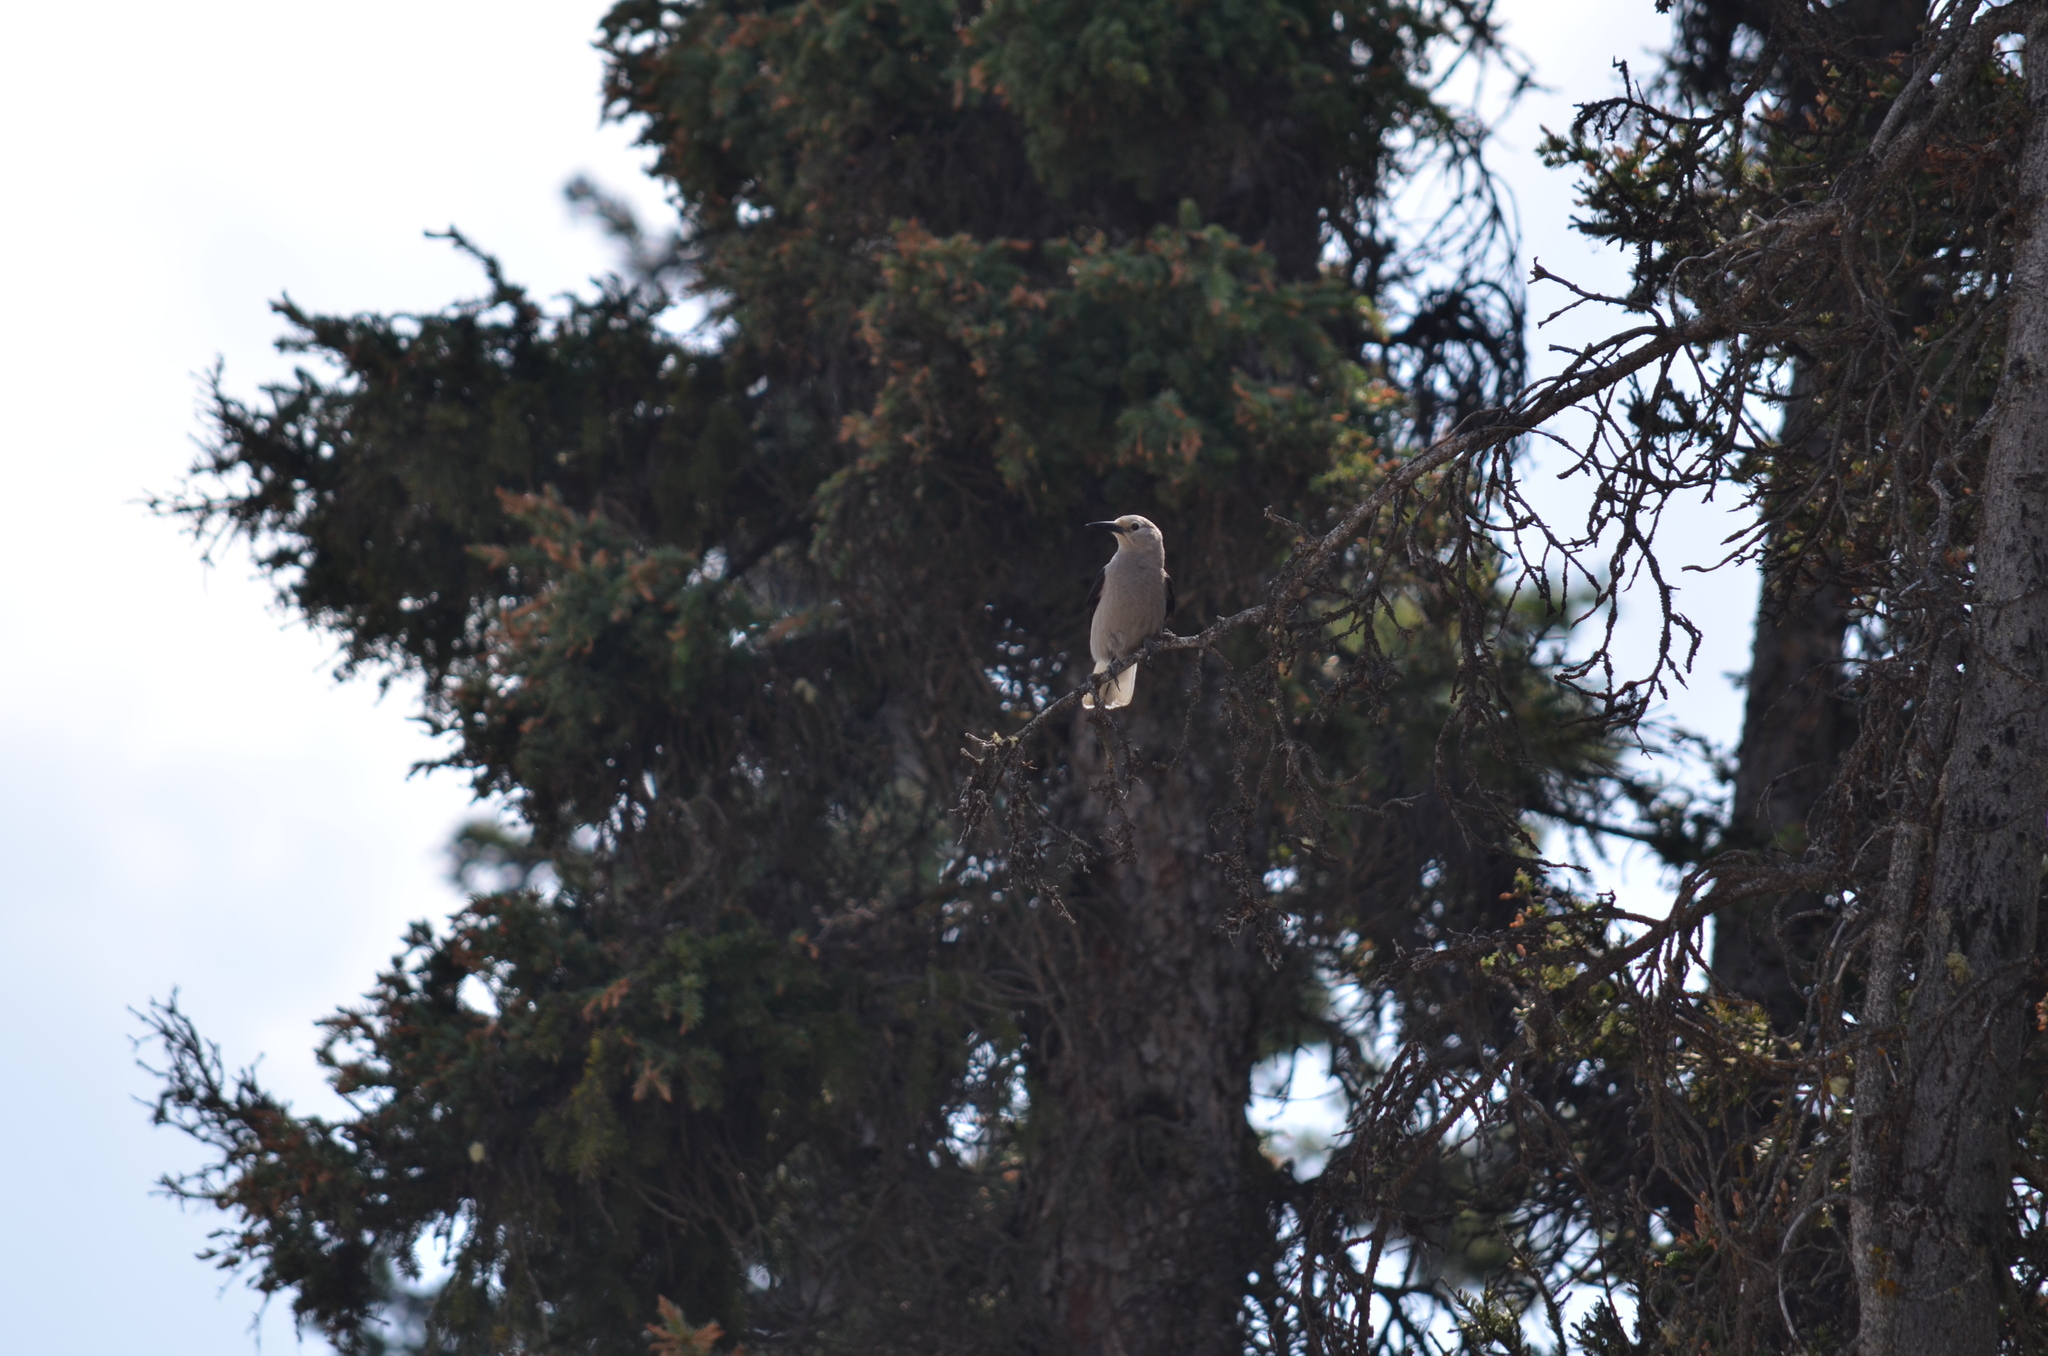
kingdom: Animalia
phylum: Chordata
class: Aves
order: Passeriformes
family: Corvidae
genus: Nucifraga
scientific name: Nucifraga columbiana
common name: Clark's nutcracker
